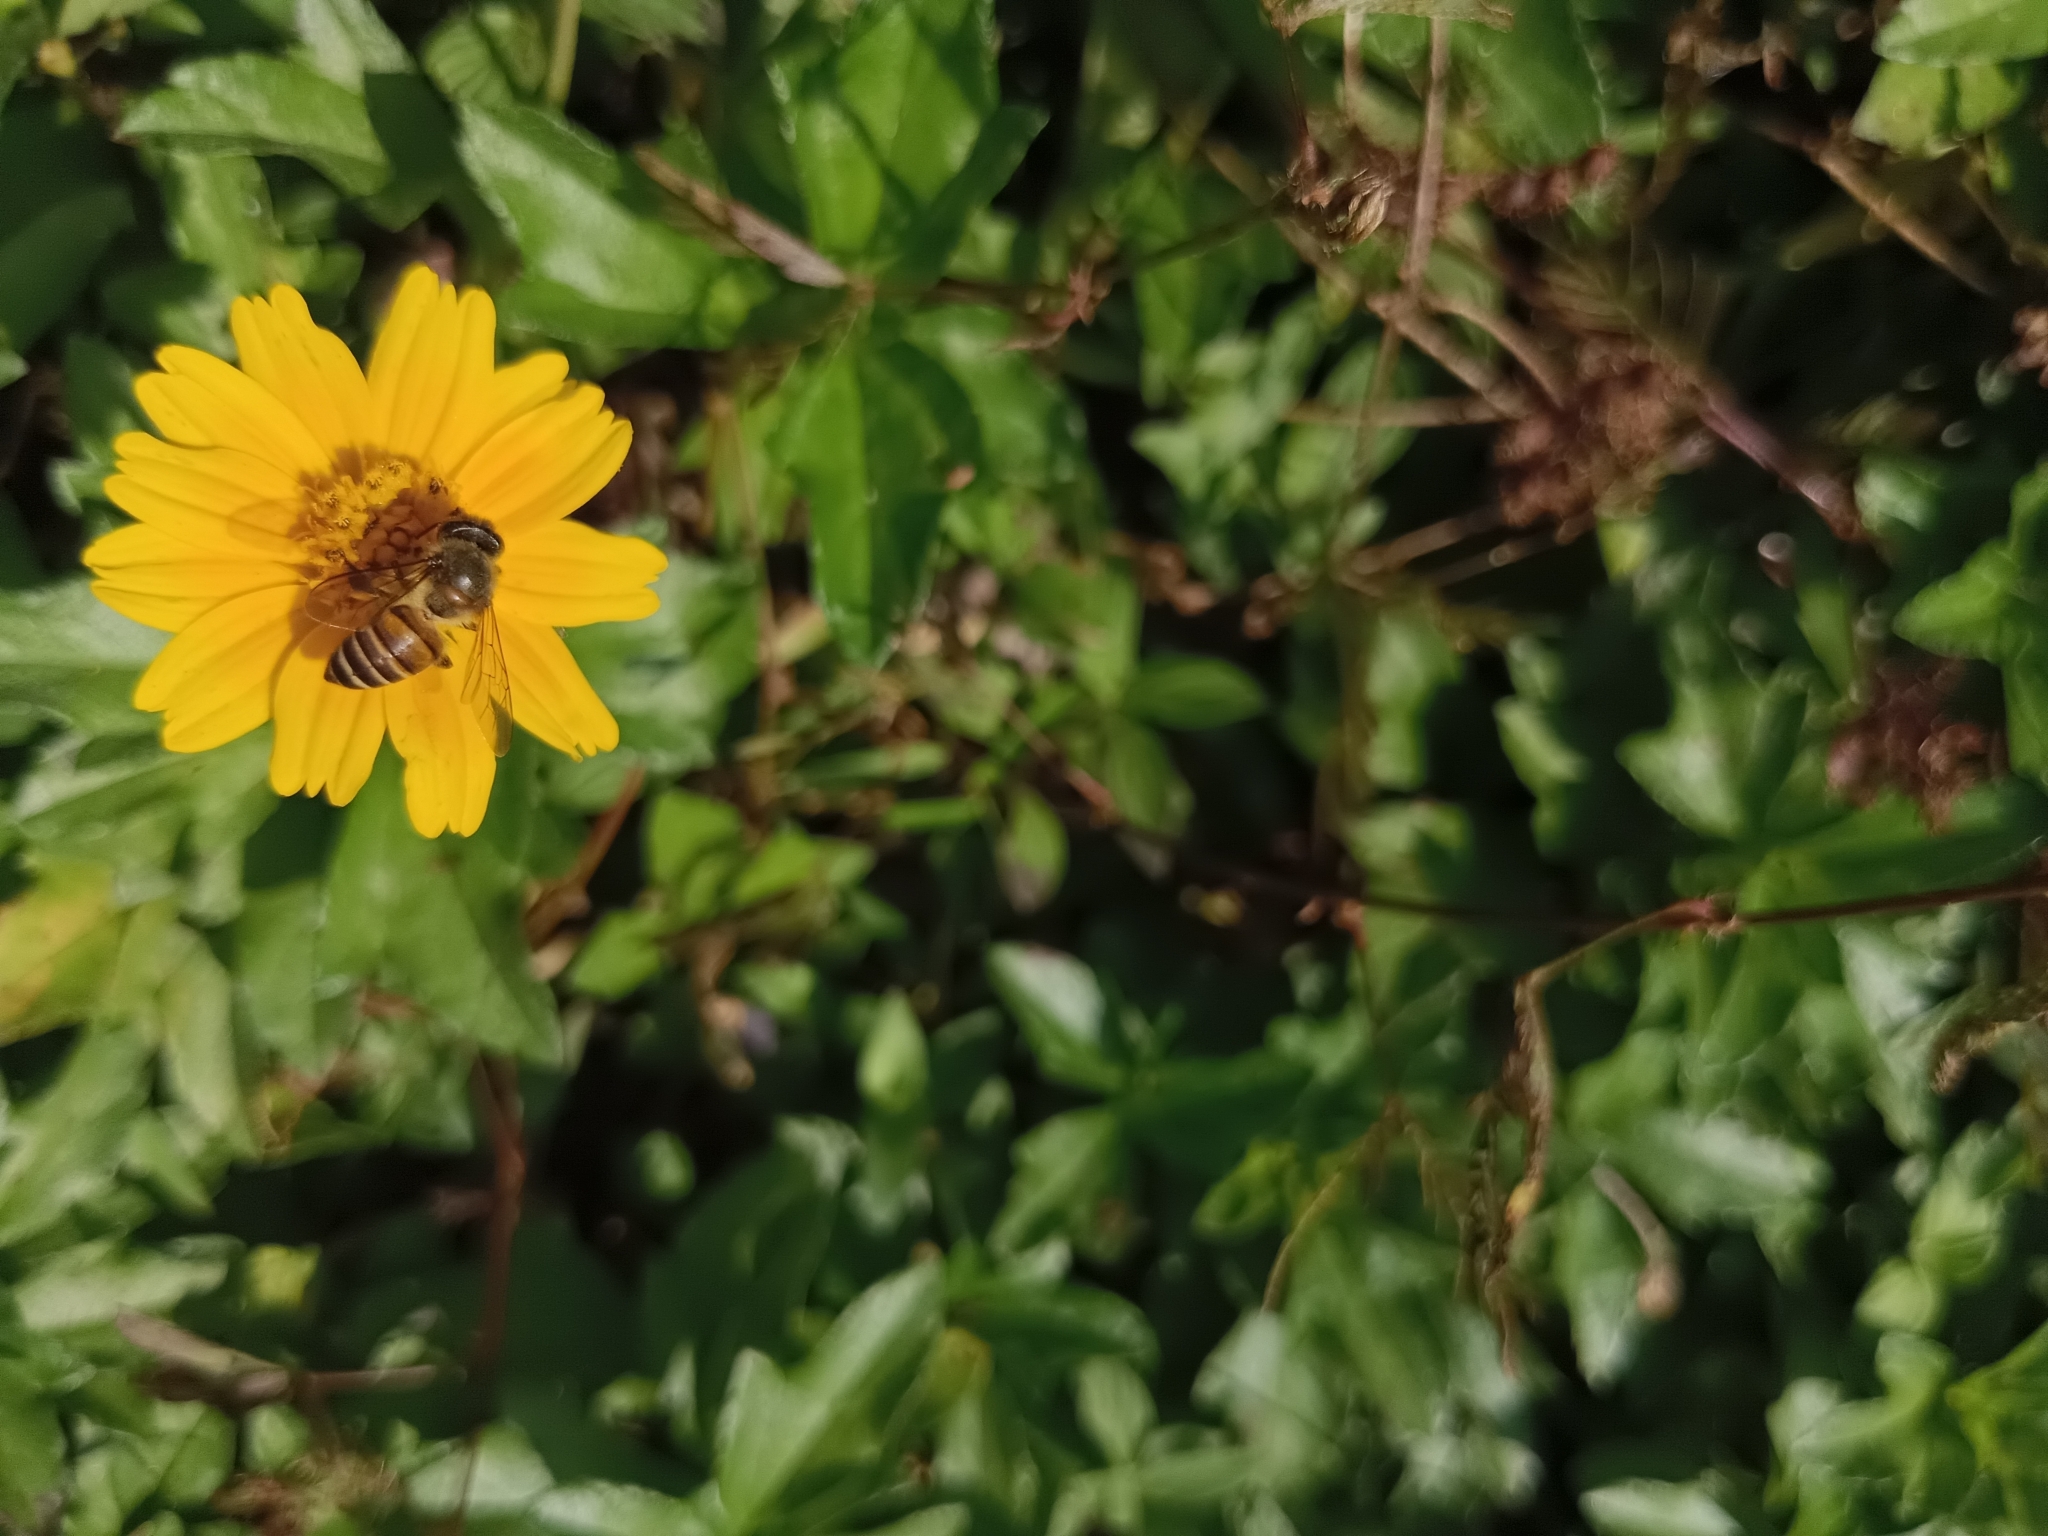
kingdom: Animalia
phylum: Arthropoda
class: Insecta
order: Hymenoptera
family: Apidae
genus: Apis
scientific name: Apis cerana
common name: Honey bee
